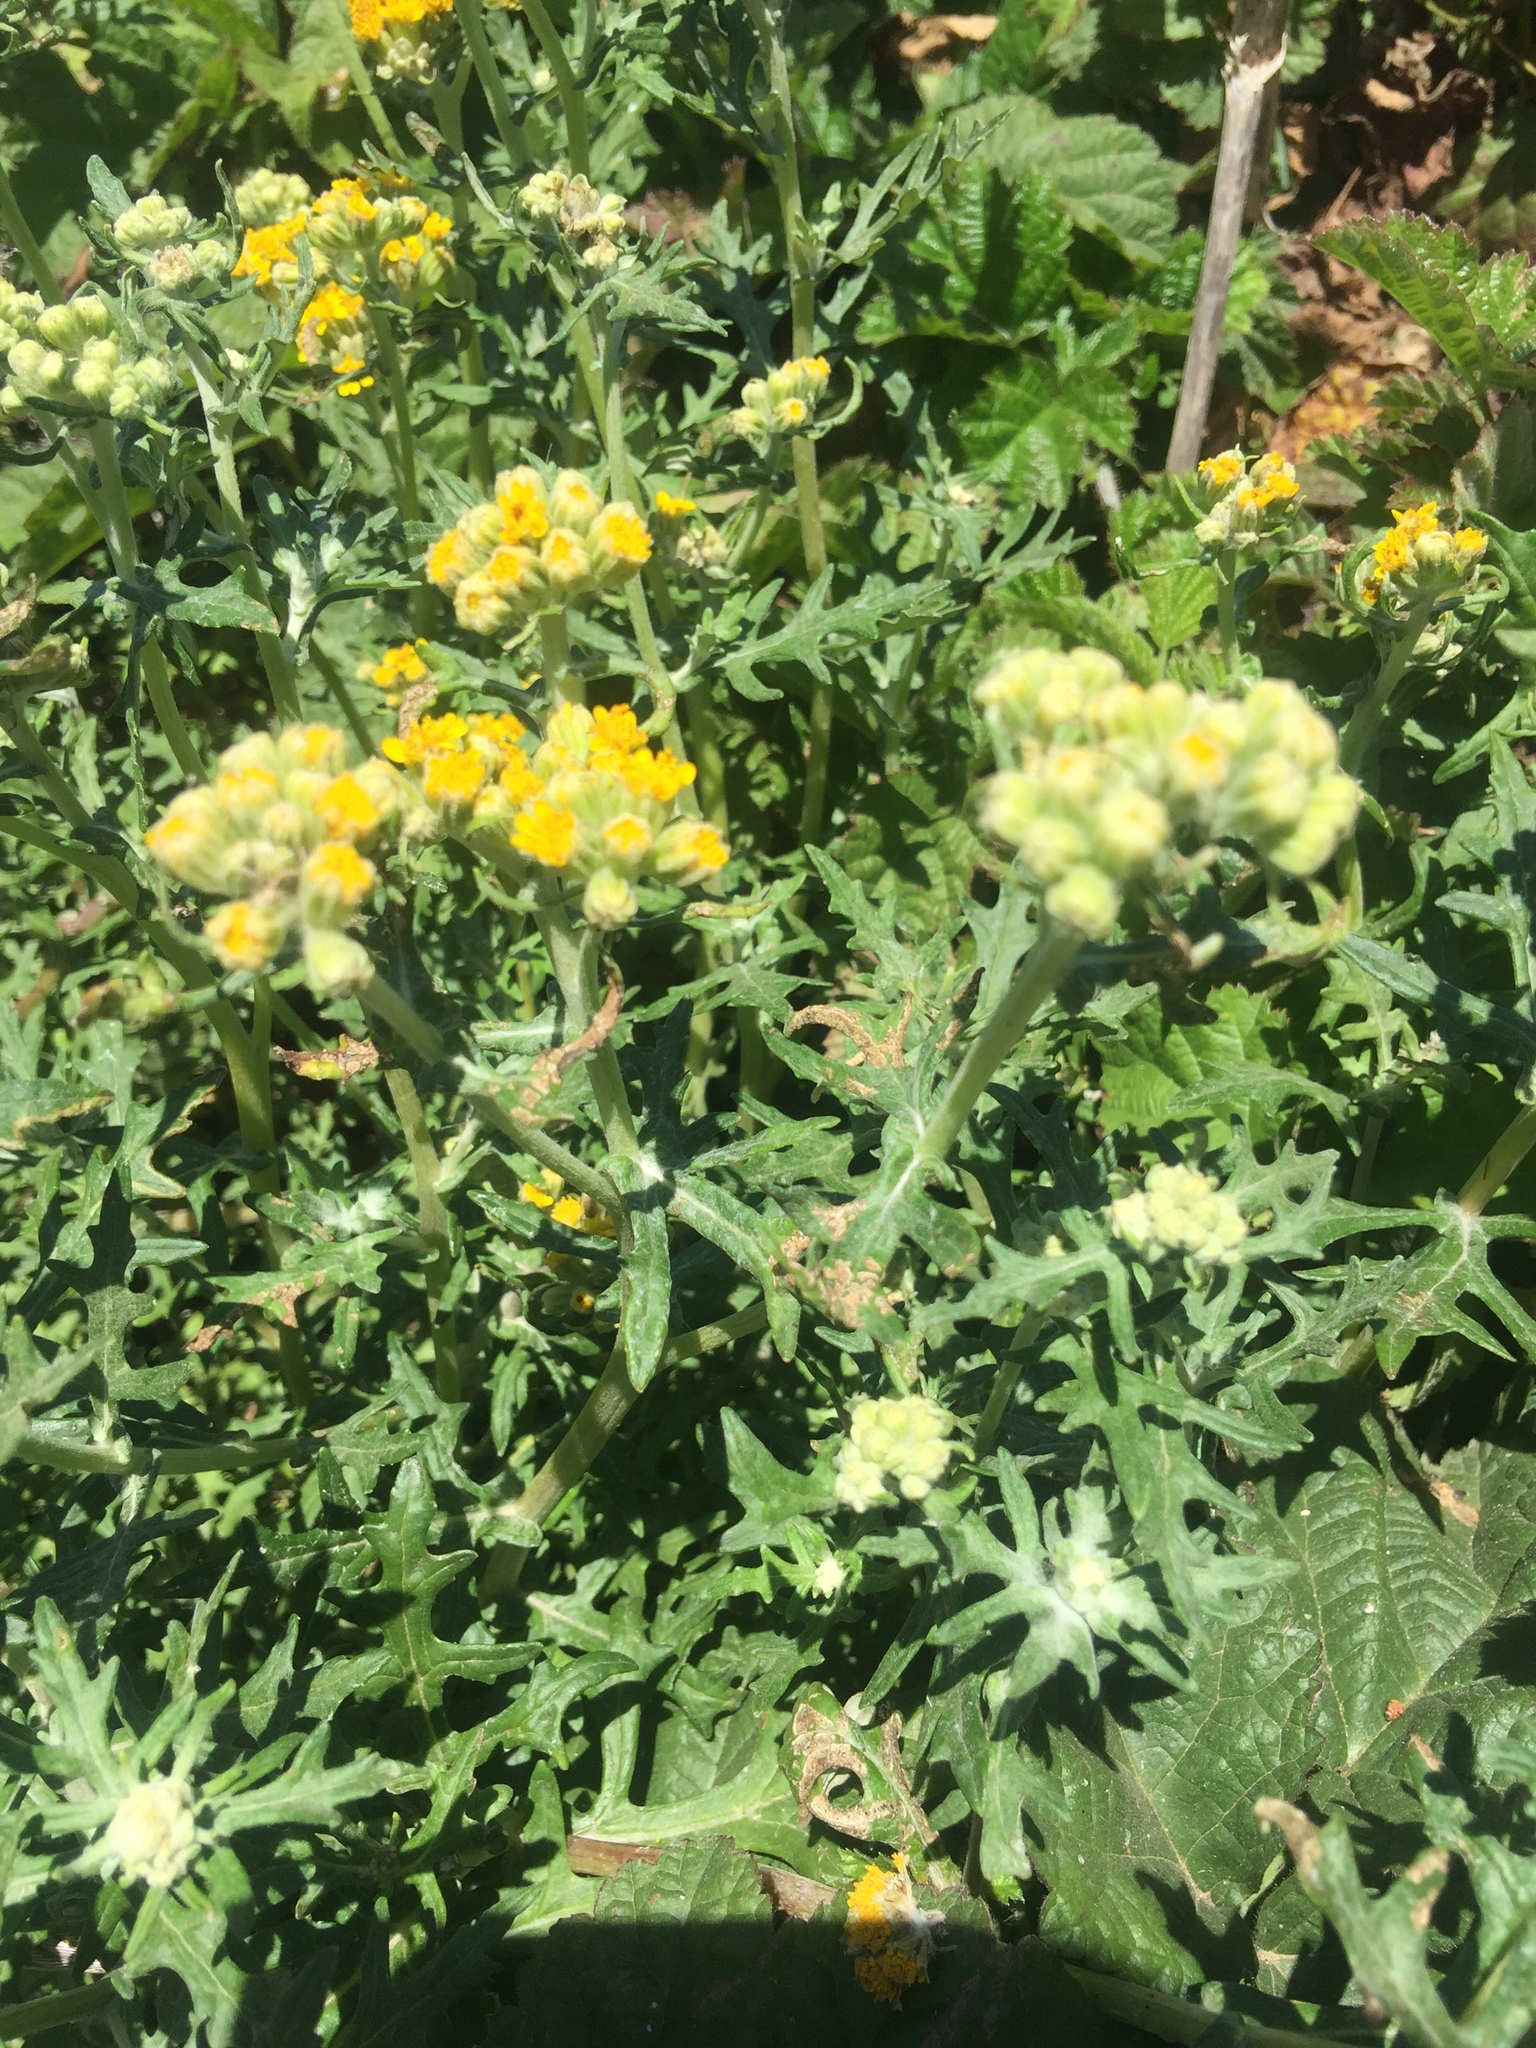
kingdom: Plantae
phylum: Tracheophyta
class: Magnoliopsida
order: Asterales
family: Asteraceae
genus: Eriophyllum
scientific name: Eriophyllum staechadifolium
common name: Lizardtail
